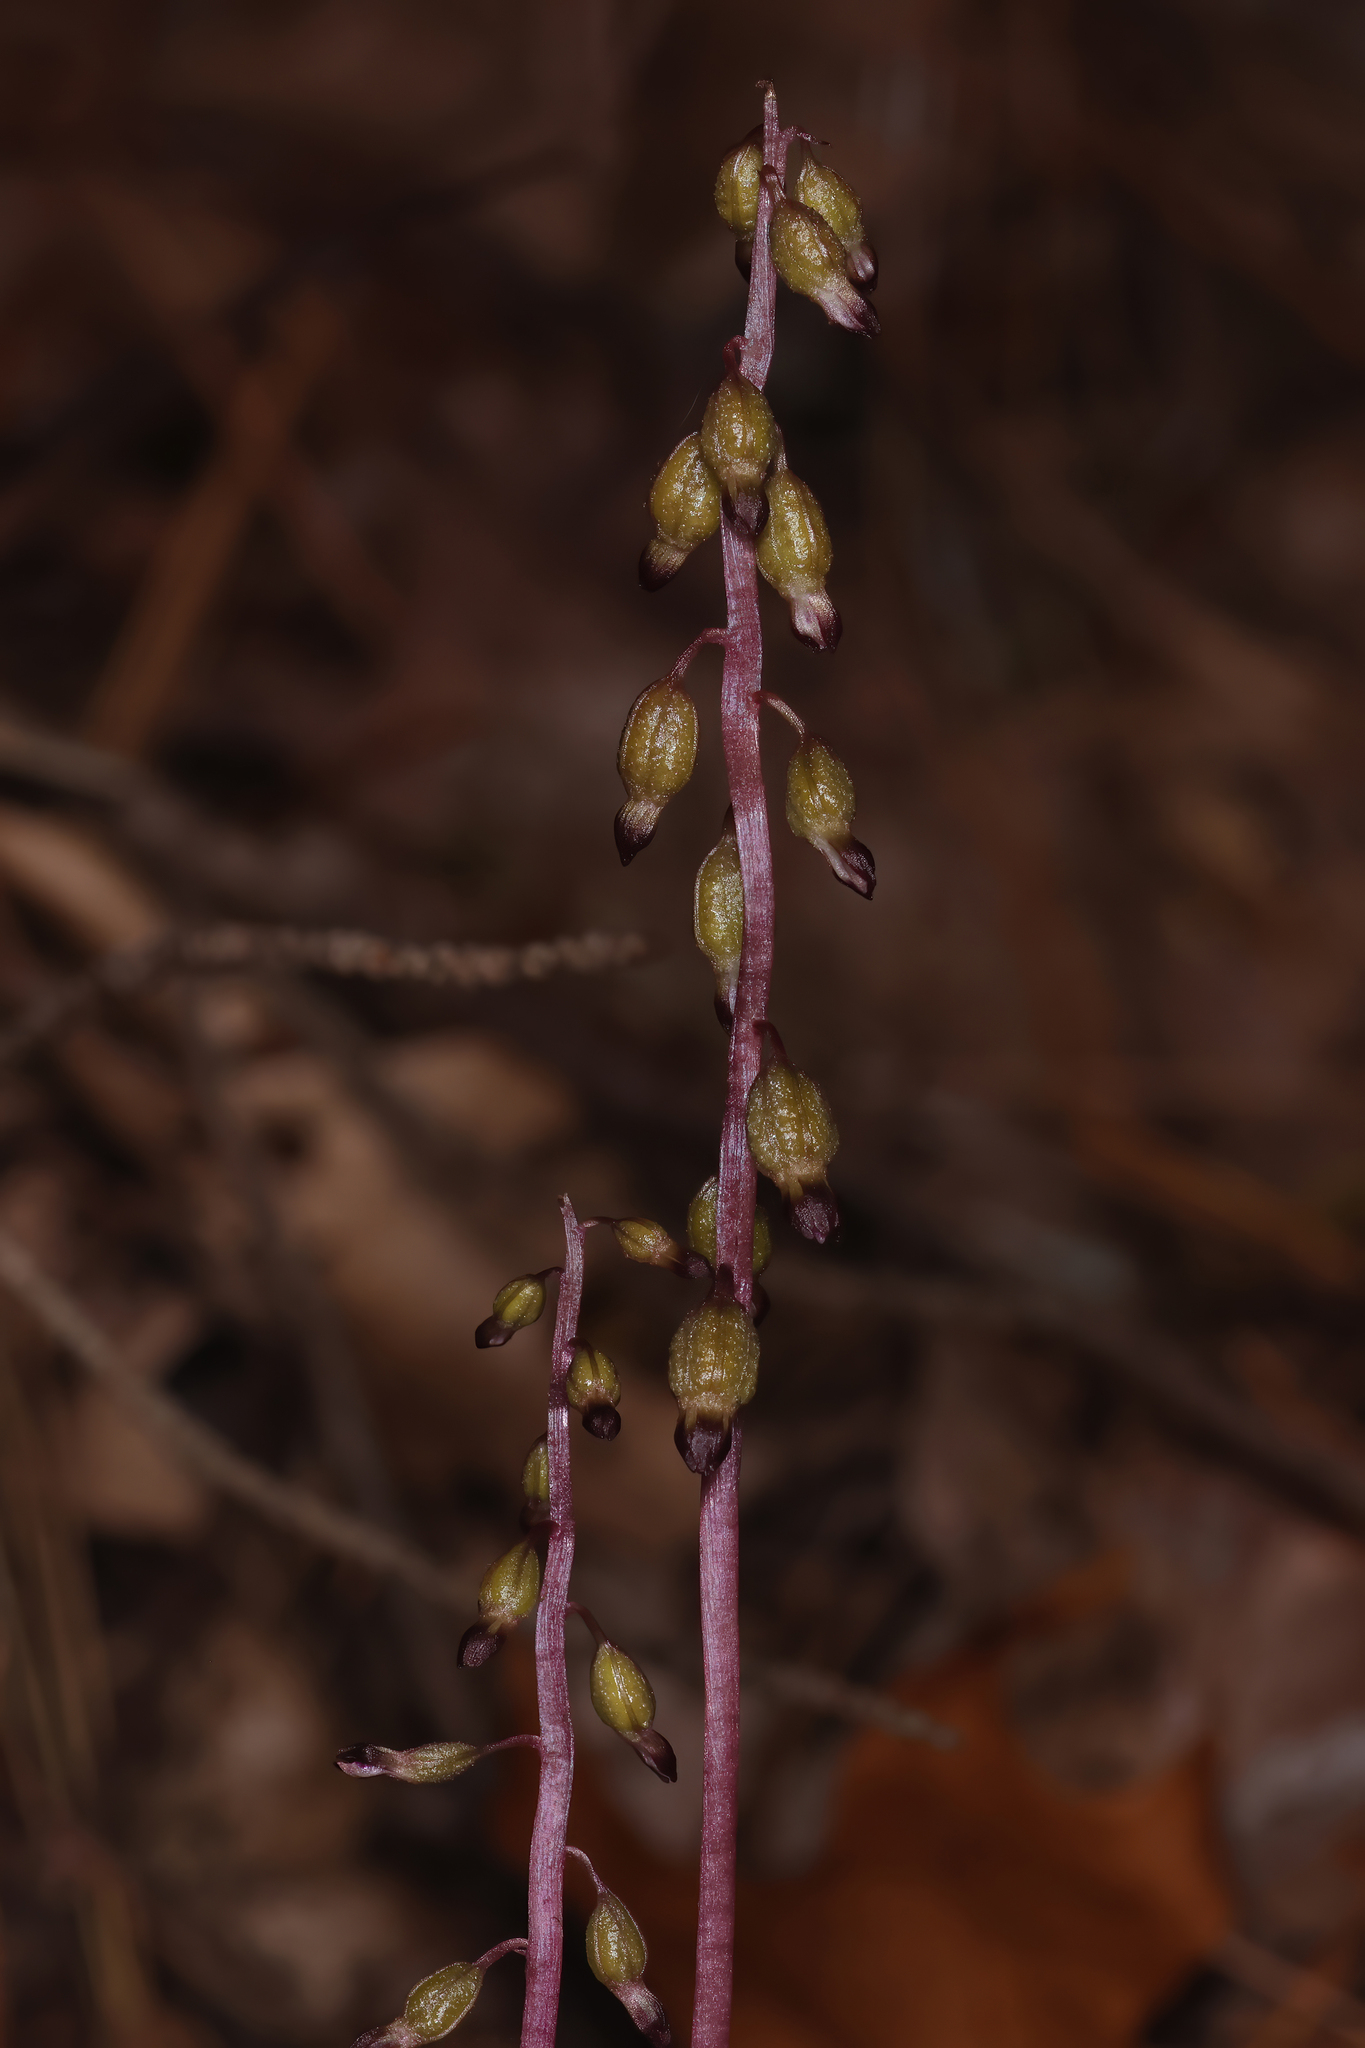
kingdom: Plantae
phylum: Tracheophyta
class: Liliopsida
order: Asparagales
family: Orchidaceae
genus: Corallorhiza
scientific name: Corallorhiza odontorhiza
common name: Autumn coralroot
